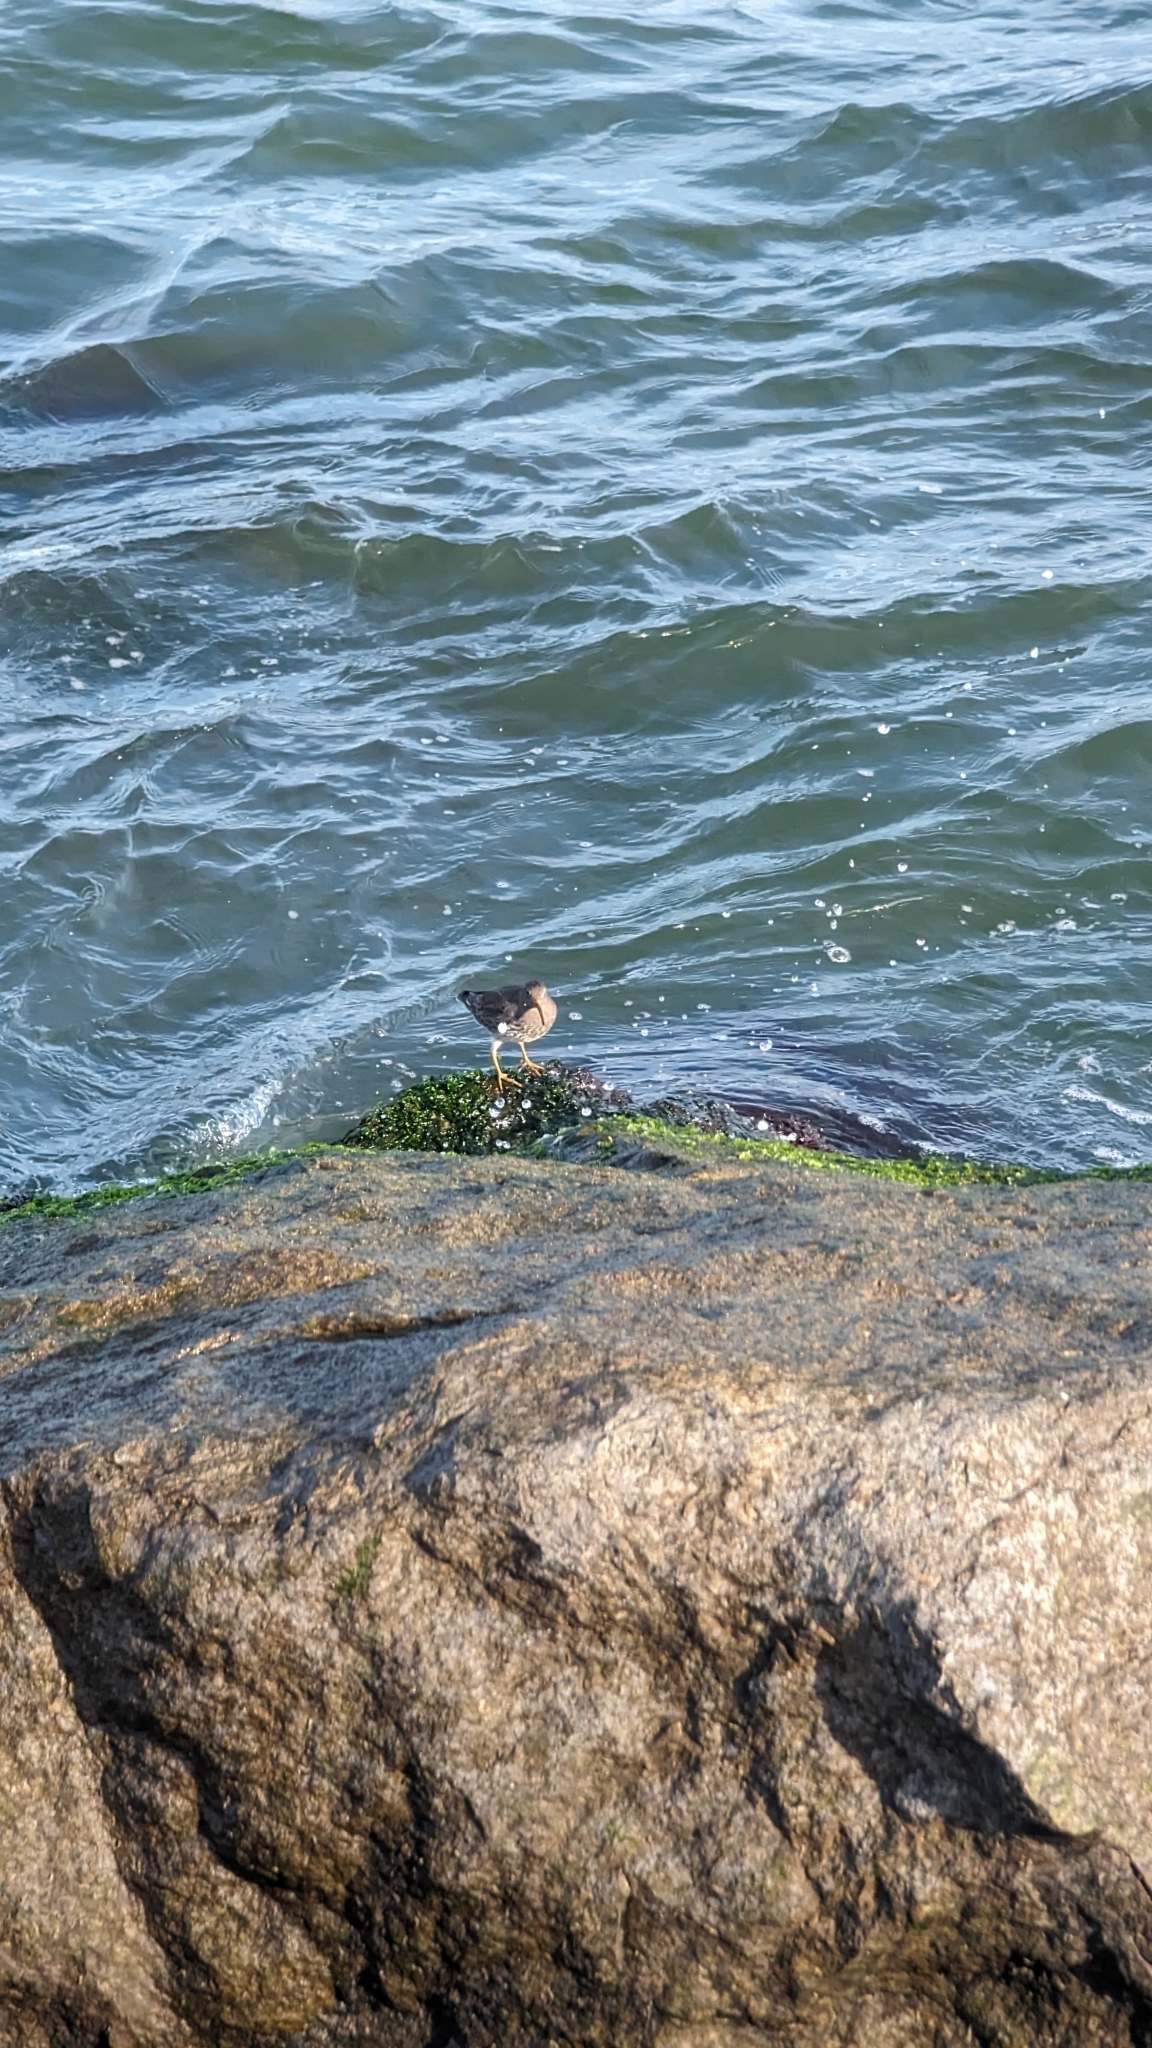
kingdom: Animalia
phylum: Chordata
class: Aves
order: Charadriiformes
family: Scolopacidae
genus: Calidris
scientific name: Calidris maritima
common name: Purple sandpiper
